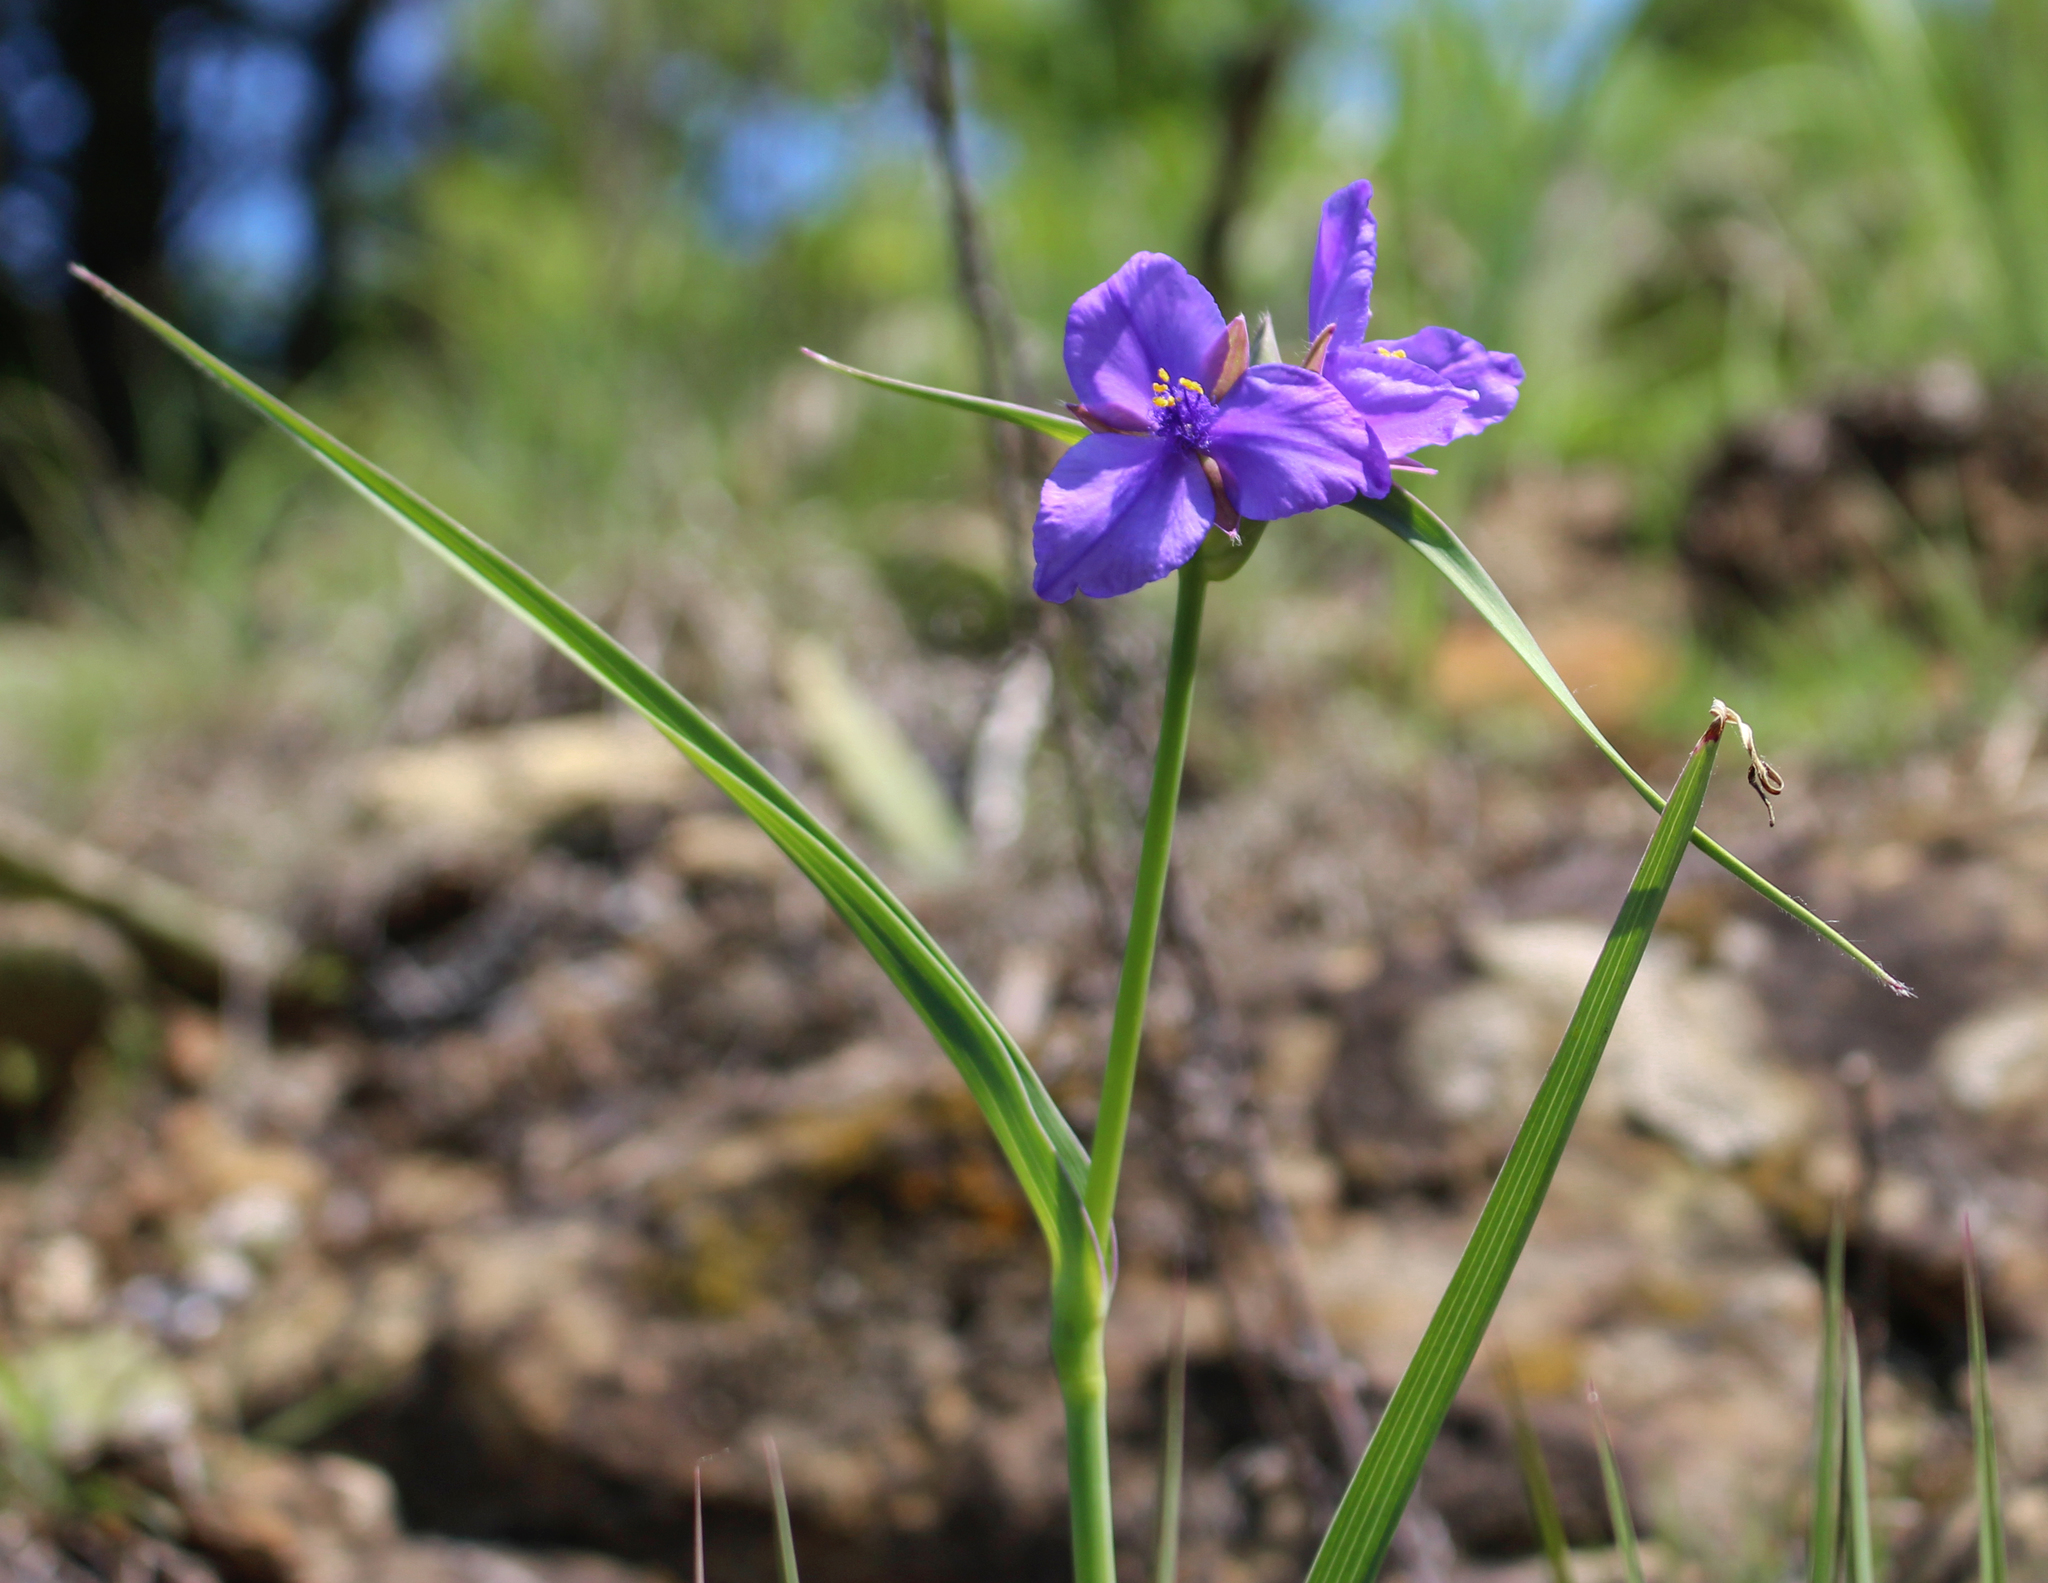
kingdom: Plantae
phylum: Tracheophyta
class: Liliopsida
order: Commelinales
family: Commelinaceae
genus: Tradescantia
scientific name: Tradescantia ohiensis
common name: Ohio spiderwort
